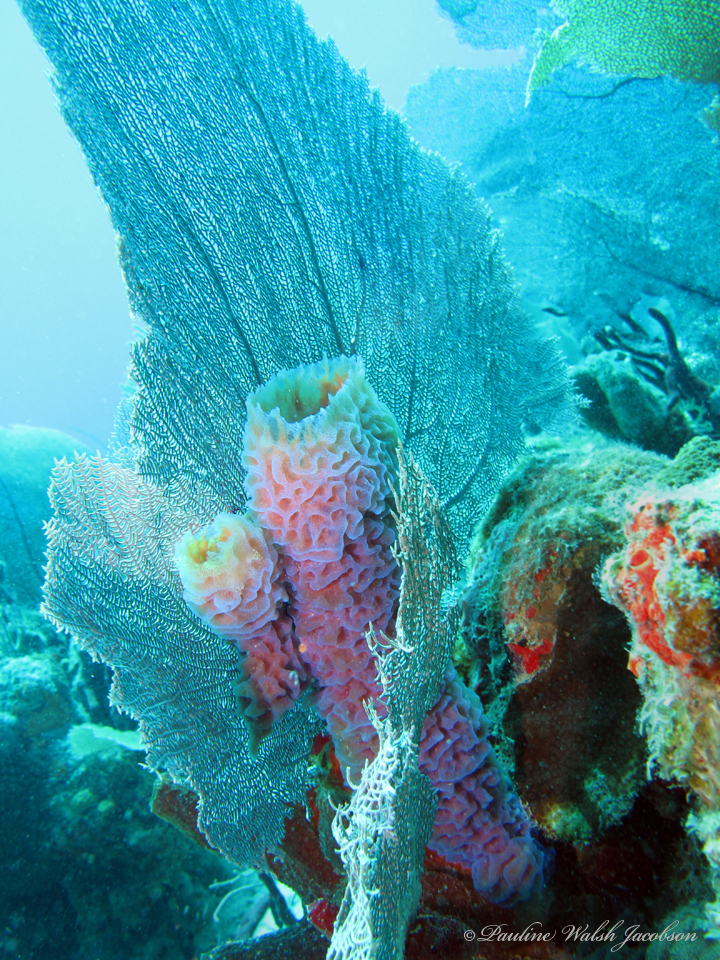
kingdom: Animalia
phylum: Porifera
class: Demospongiae
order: Haplosclerida
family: Callyspongiidae
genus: Callyspongia
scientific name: Callyspongia plicifera
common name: Azure vase sponge
